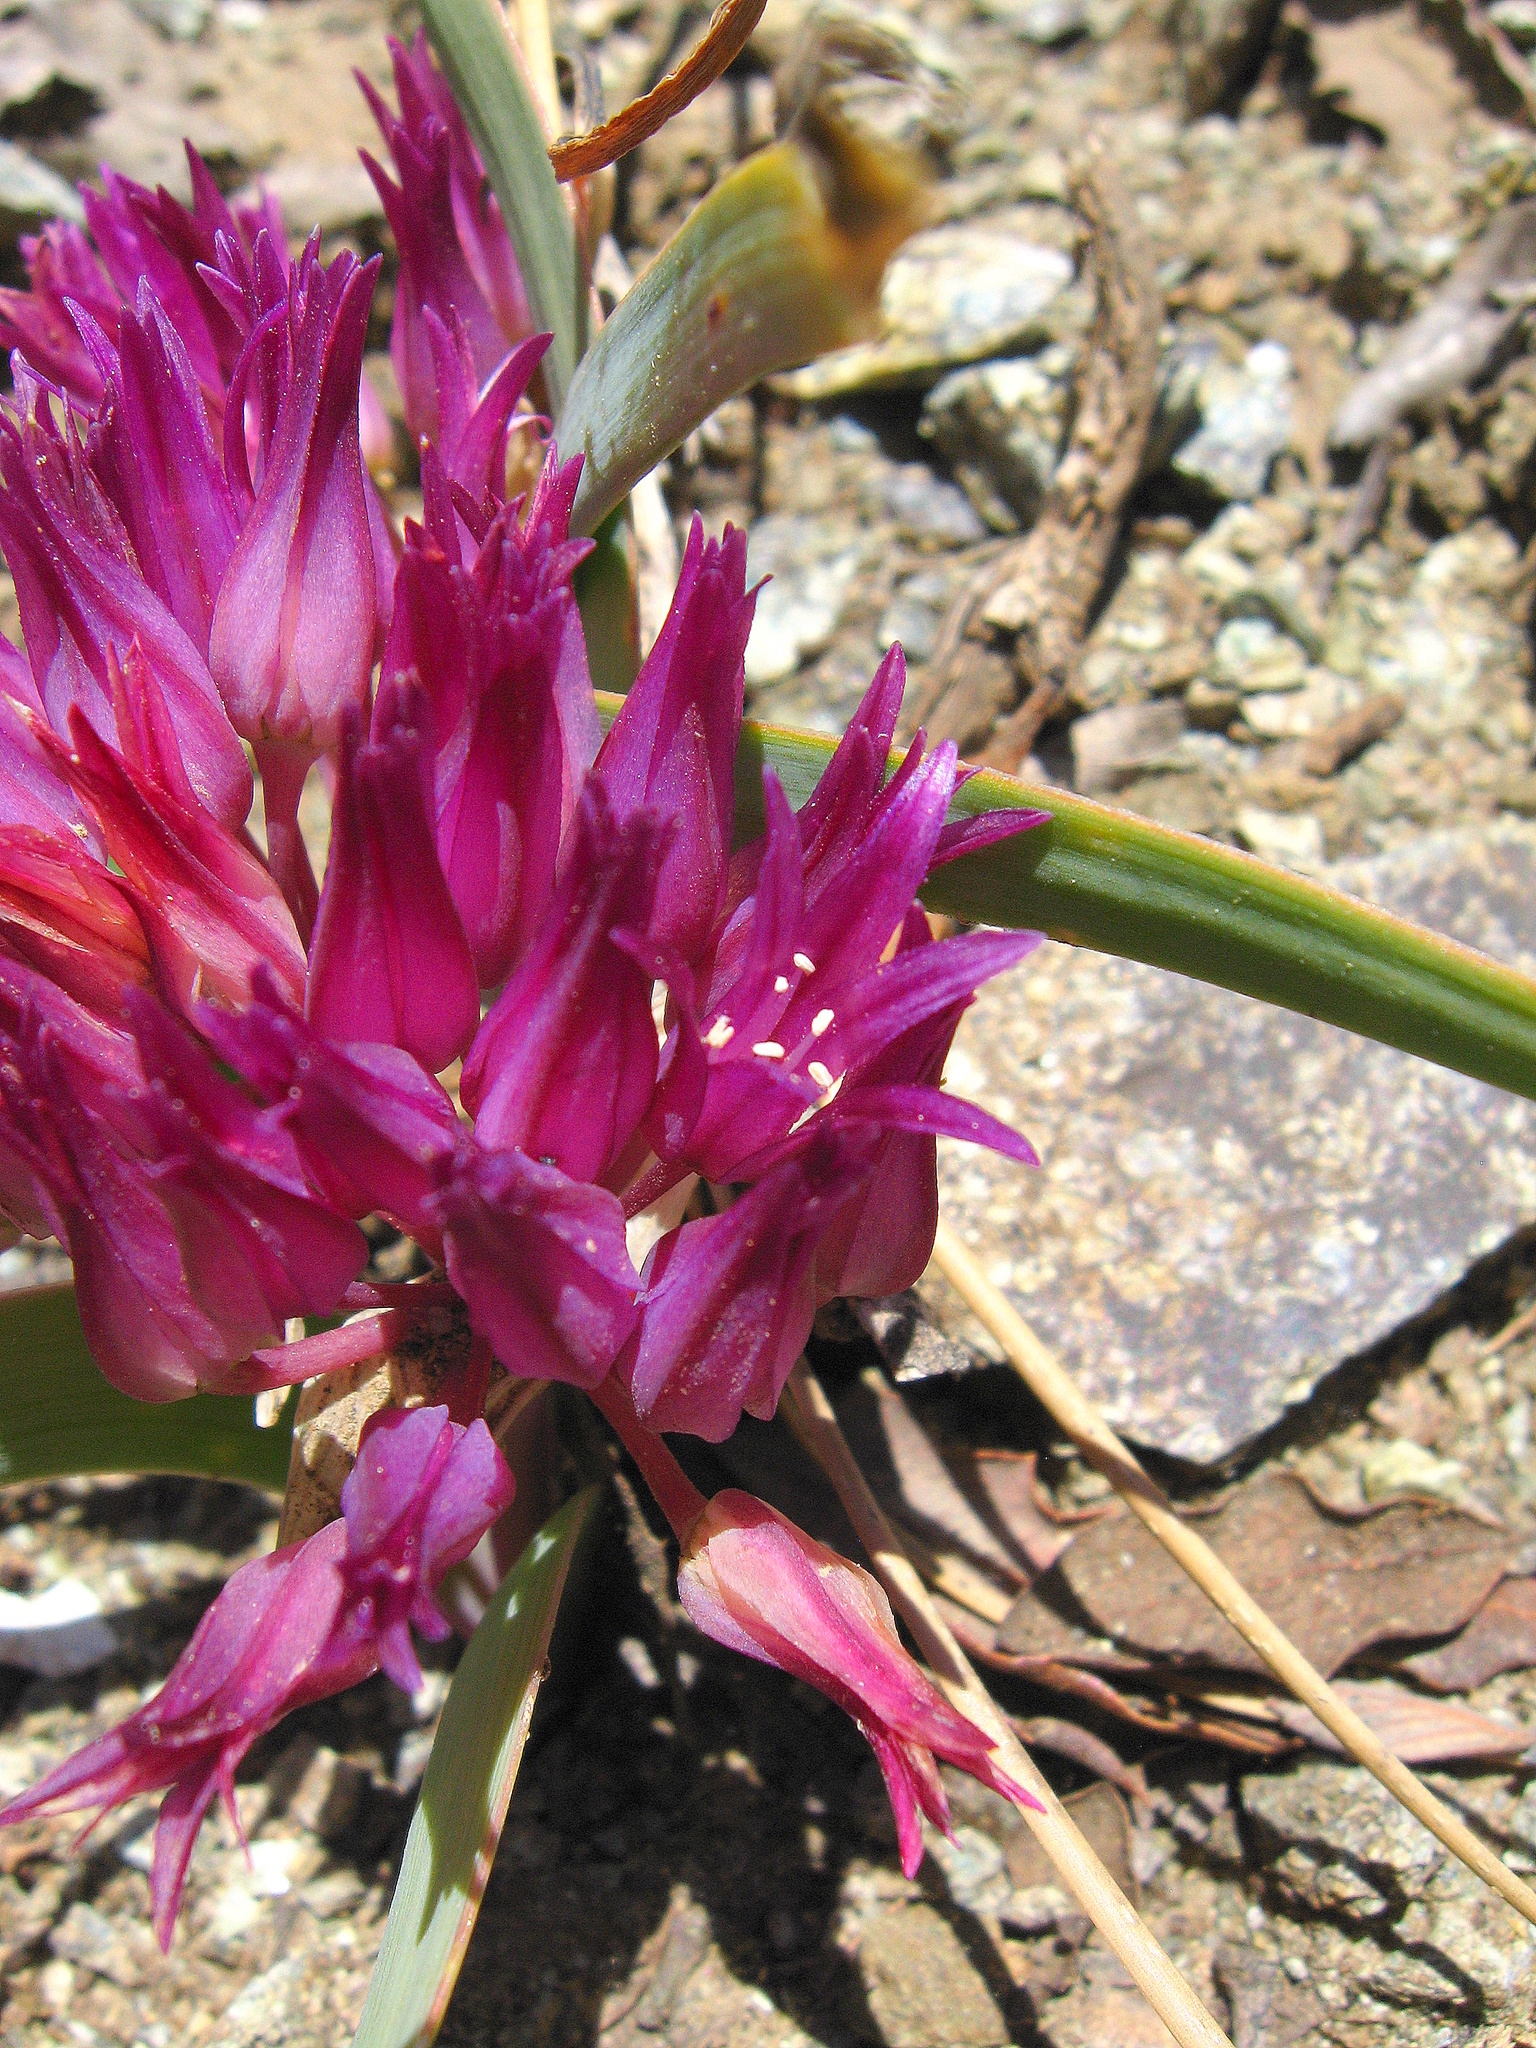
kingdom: Plantae
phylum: Tracheophyta
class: Liliopsida
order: Asparagales
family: Amaryllidaceae
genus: Allium
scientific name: Allium falcifolium
